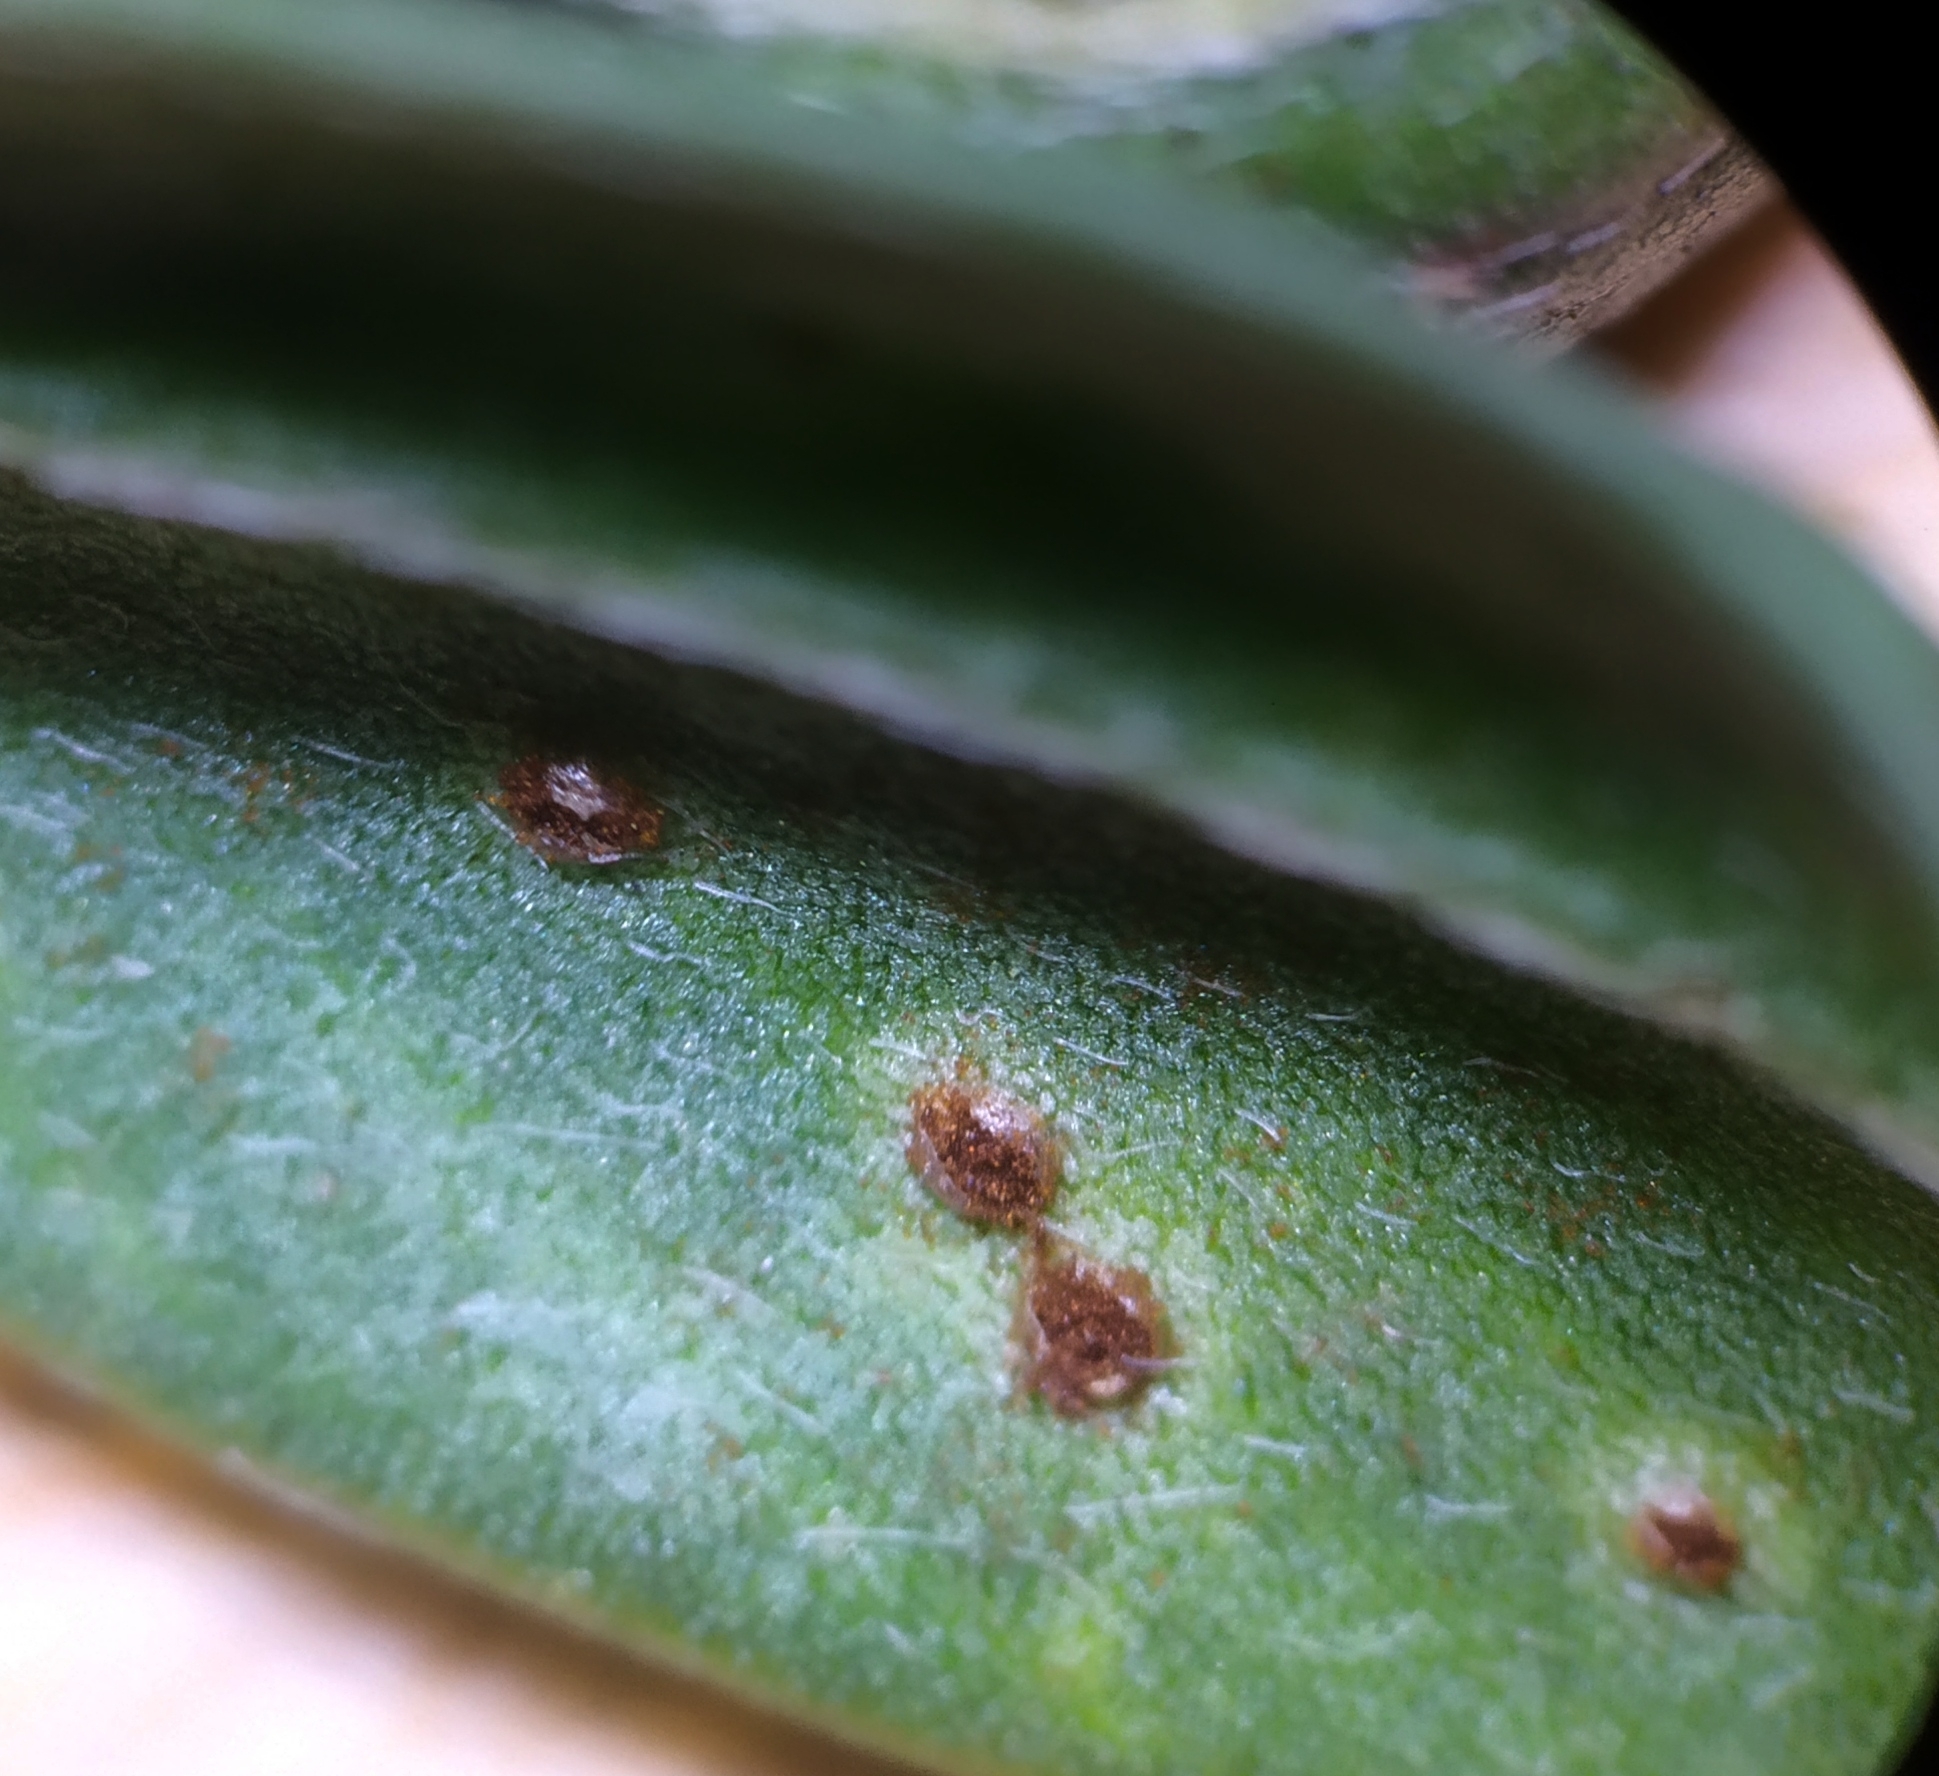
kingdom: Fungi
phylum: Basidiomycota
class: Pucciniomycetes
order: Pucciniales
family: Pucciniaceae
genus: Uromyces
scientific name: Uromyces onobrychidis
